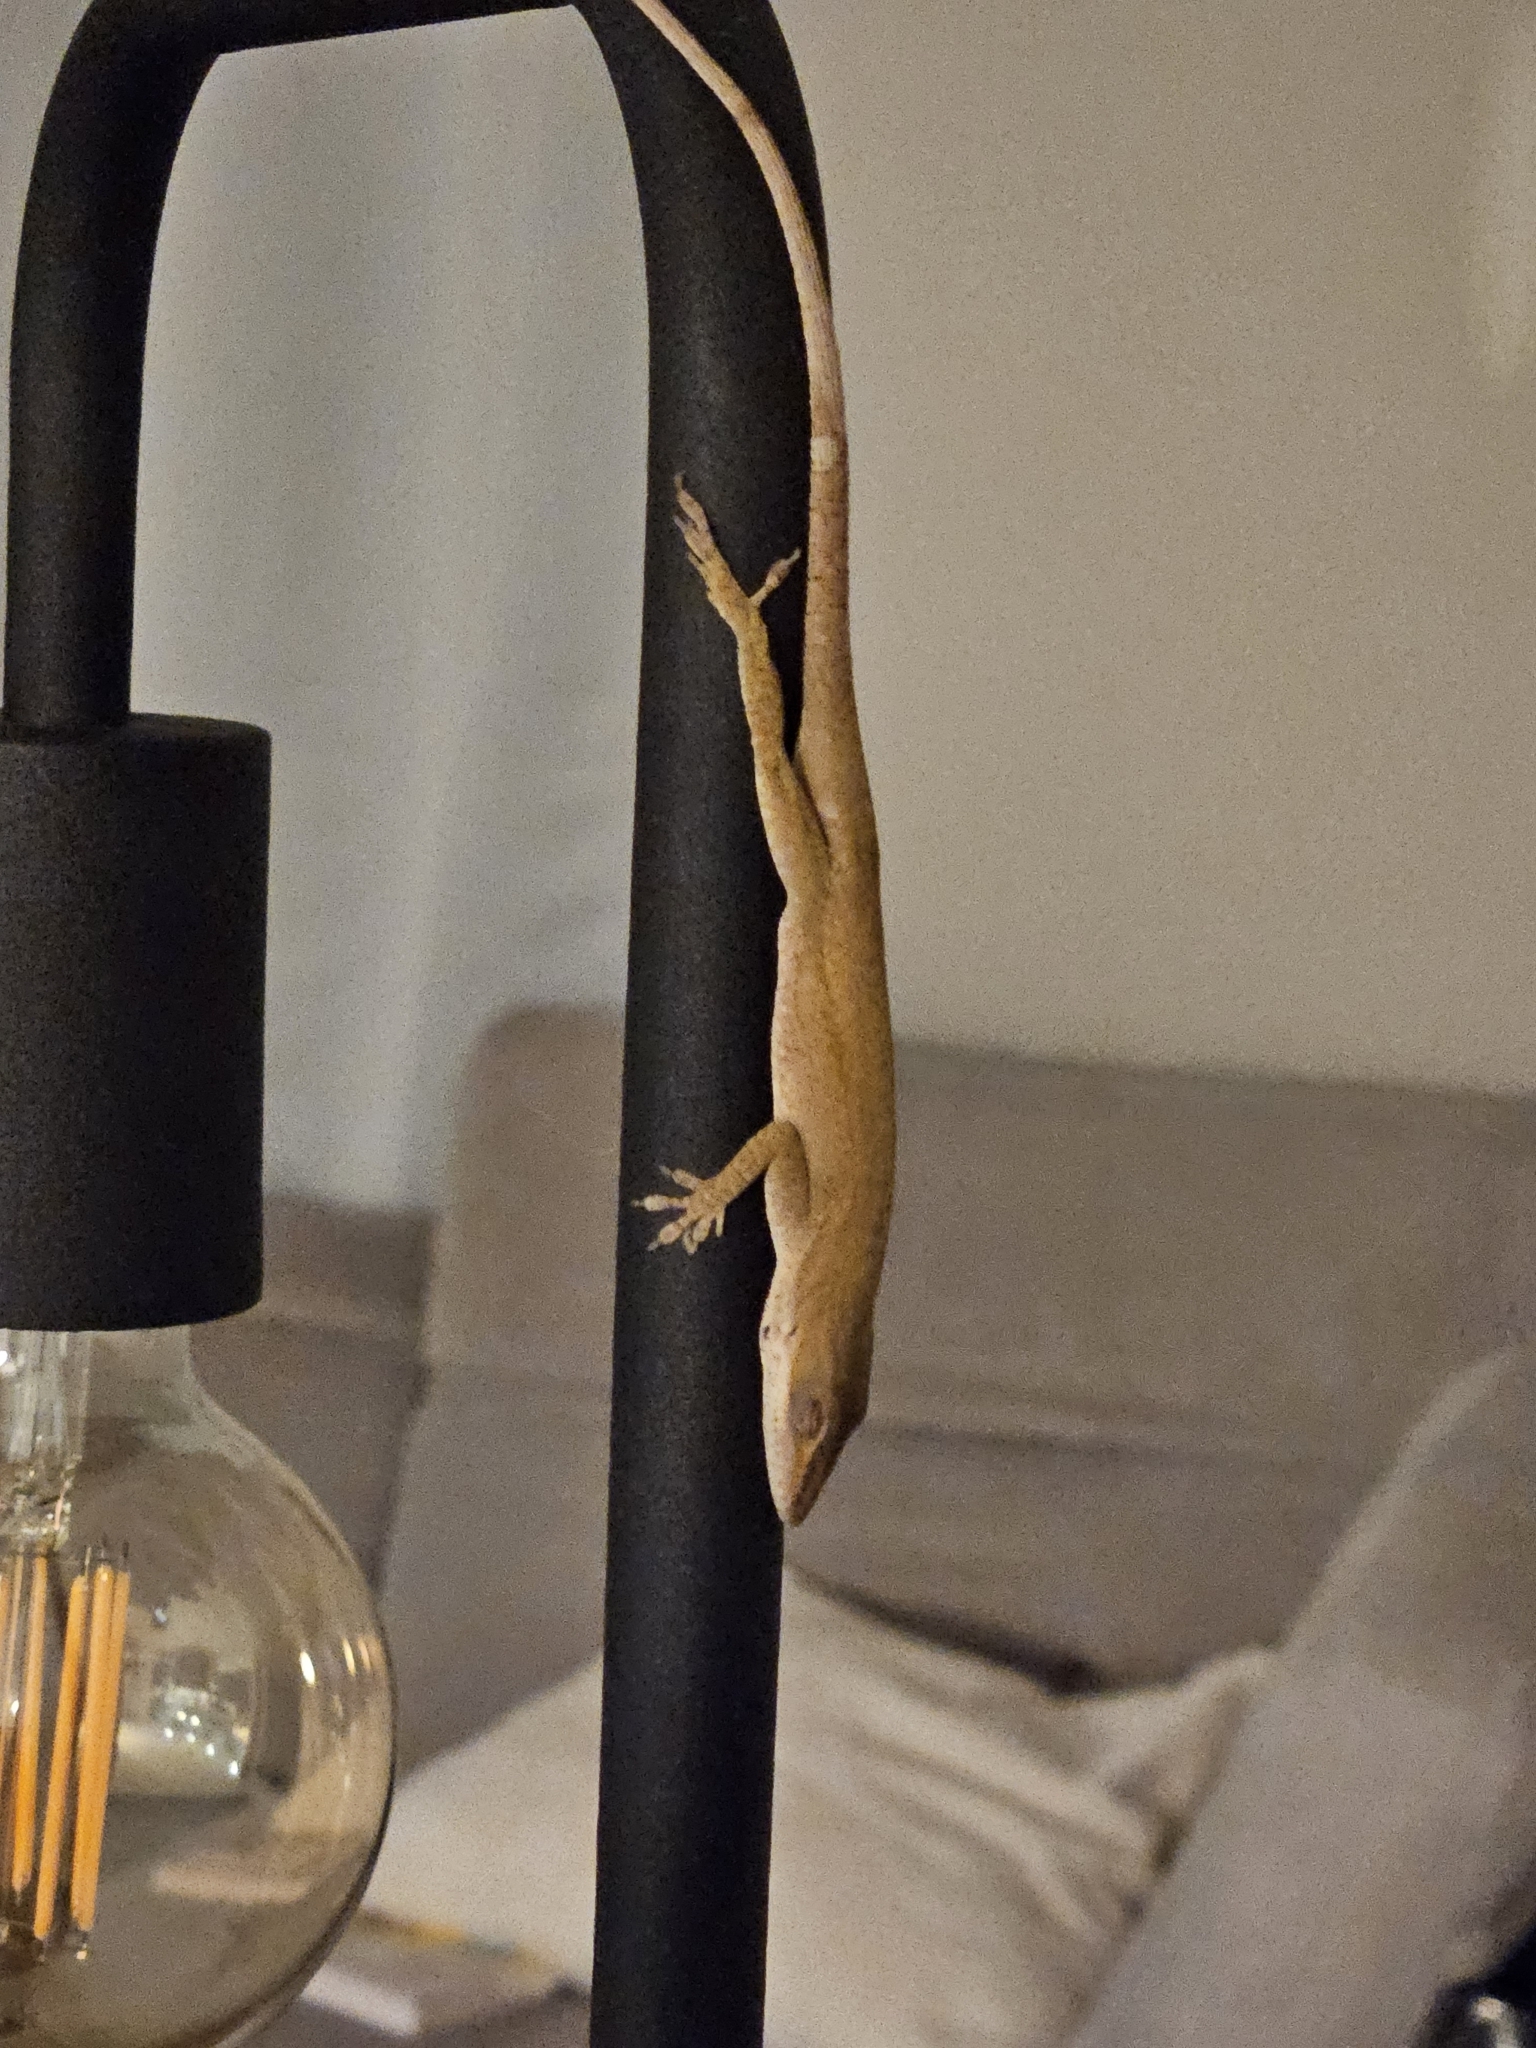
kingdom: Animalia
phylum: Chordata
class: Squamata
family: Dactyloidae
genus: Anolis
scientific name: Anolis carolinensis
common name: Green anole
